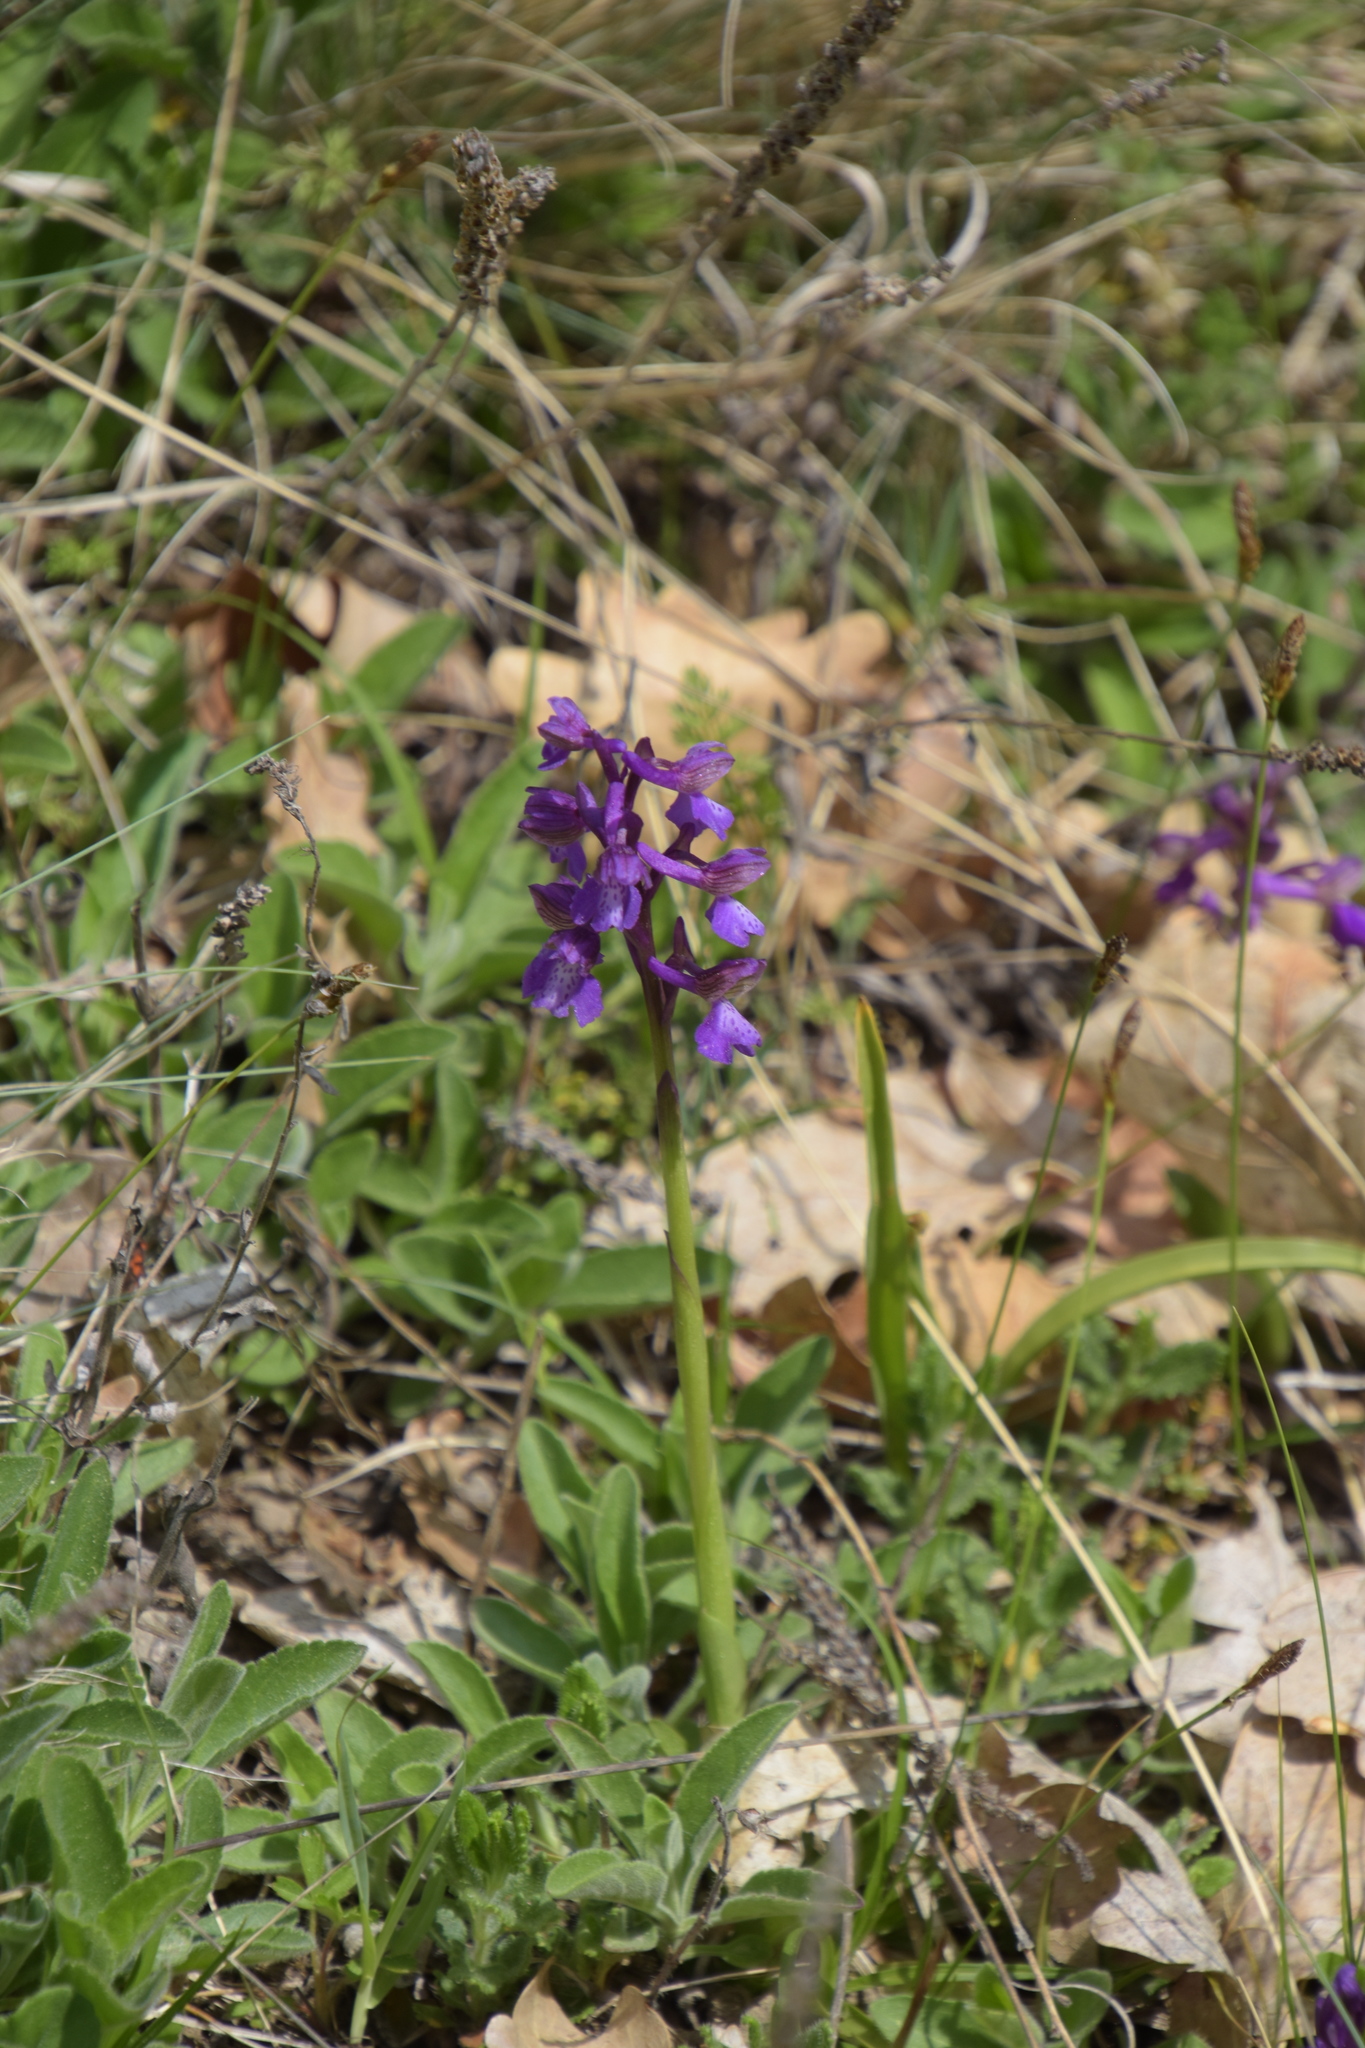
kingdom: Plantae
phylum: Tracheophyta
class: Liliopsida
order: Asparagales
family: Orchidaceae
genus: Anacamptis
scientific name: Anacamptis morio
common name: Green-winged orchid
